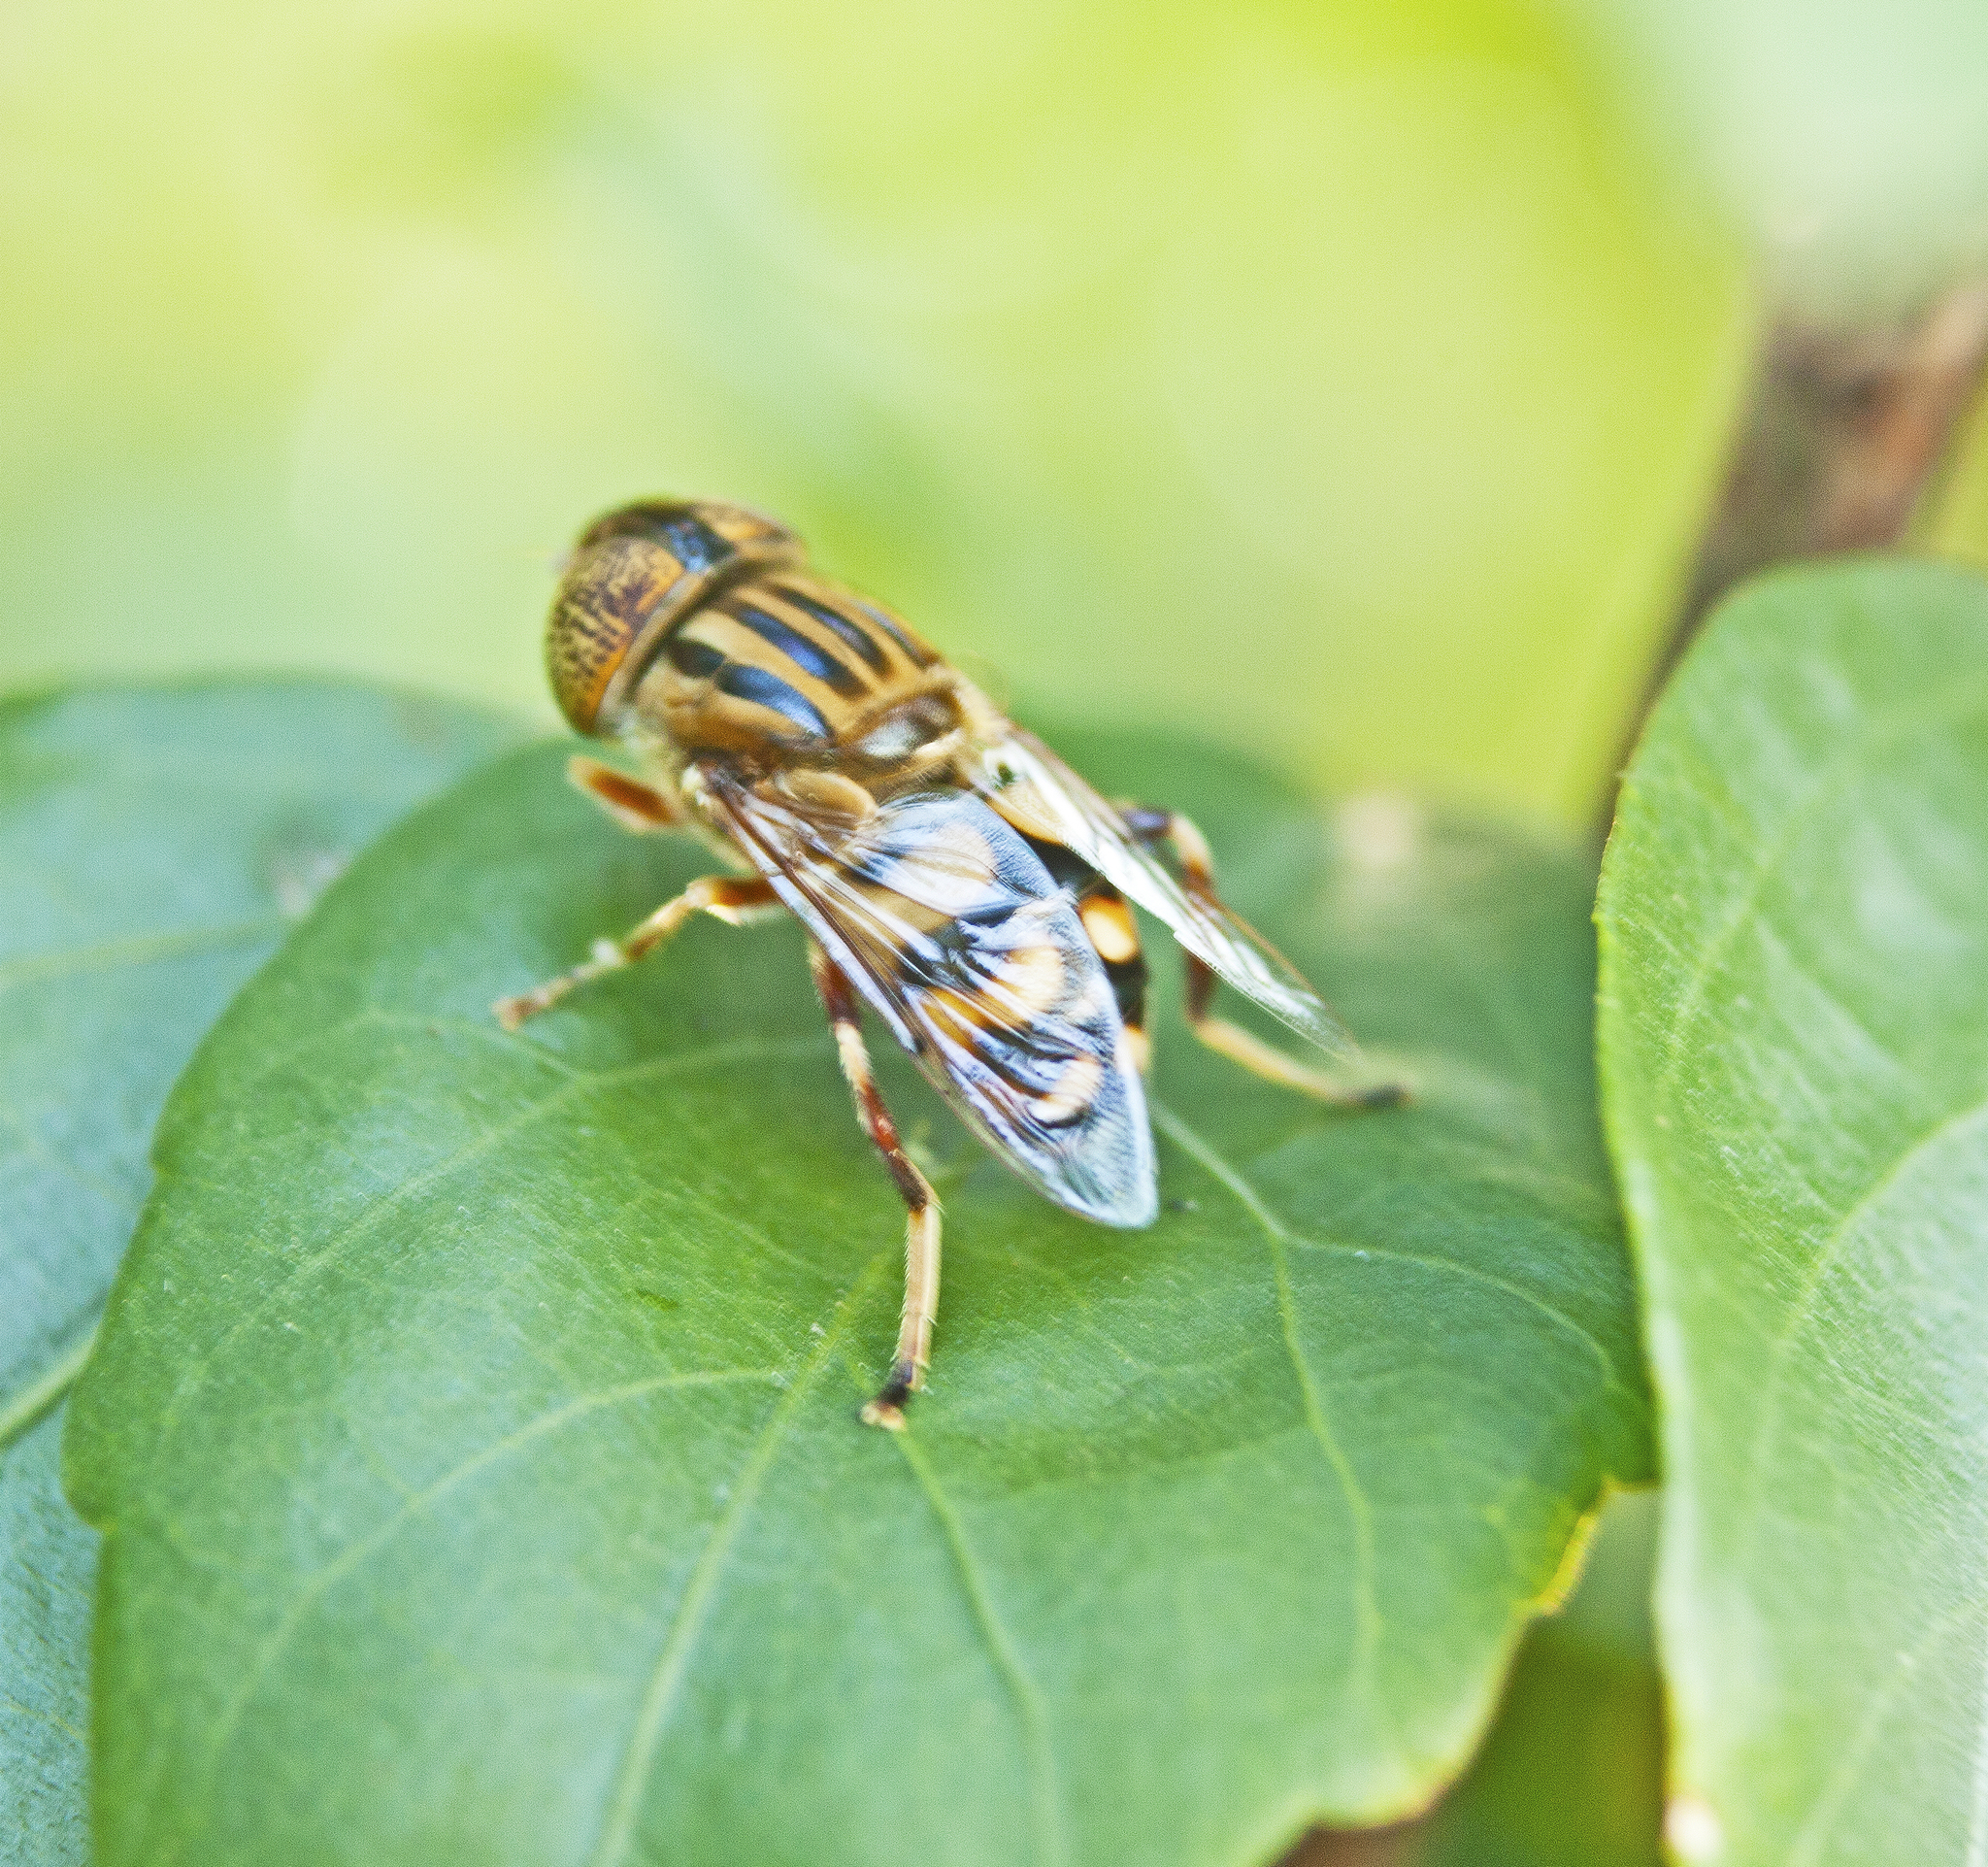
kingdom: Animalia
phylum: Arthropoda
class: Insecta
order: Diptera
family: Syrphidae
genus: Eristalinus
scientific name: Eristalinus punctulatus
